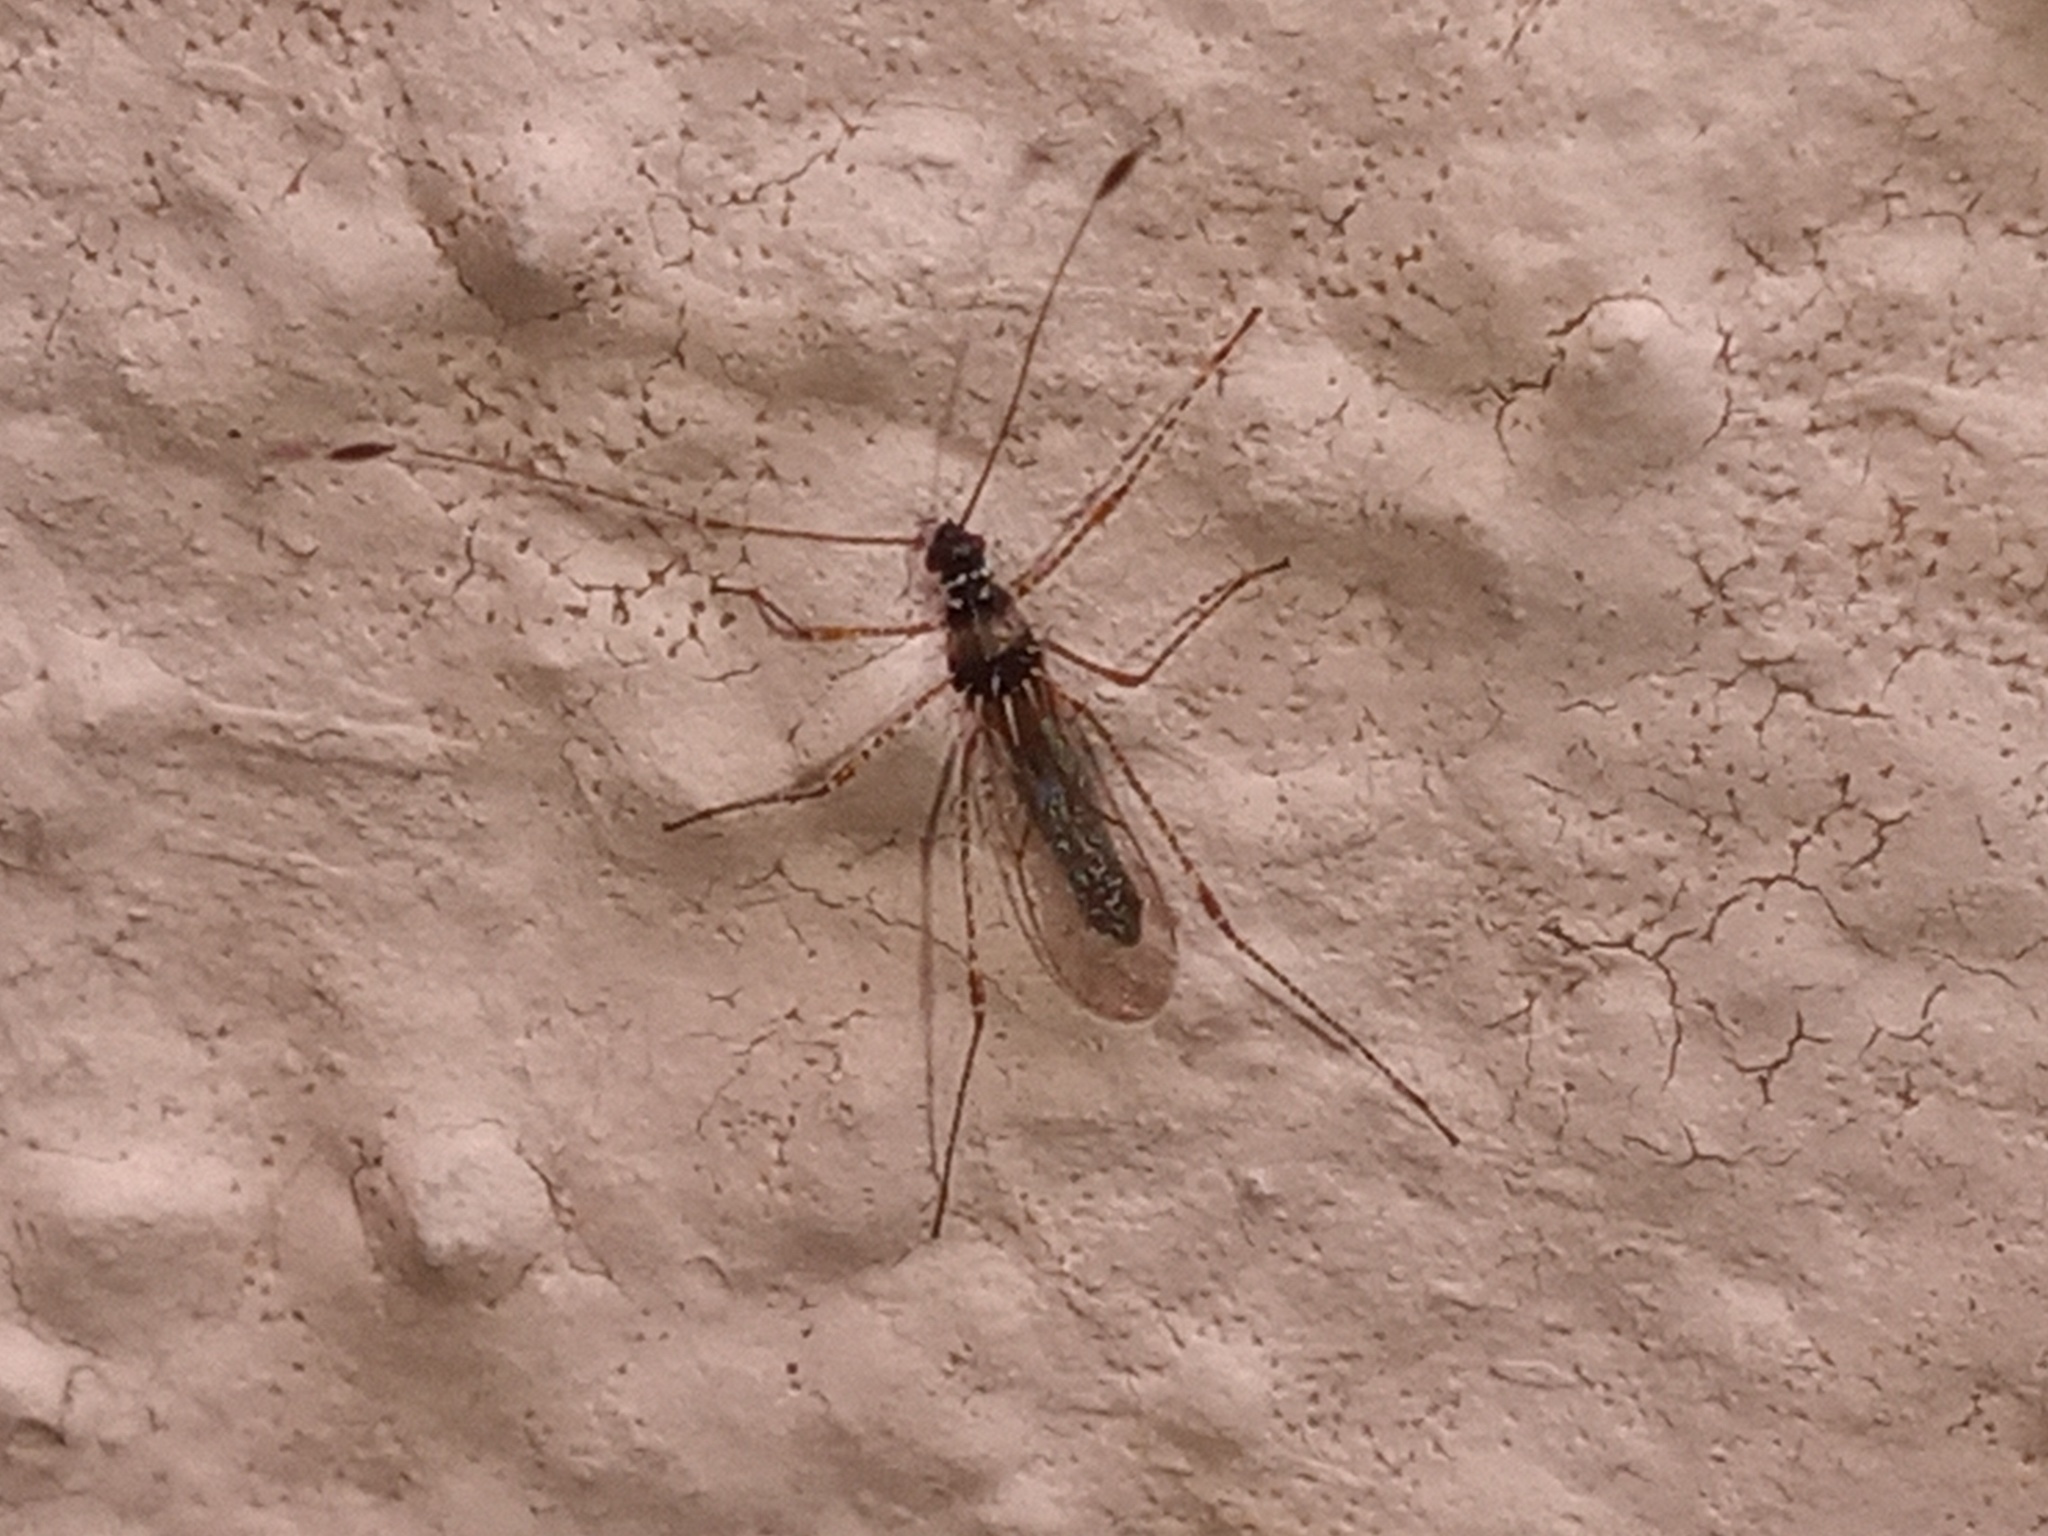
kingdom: Animalia
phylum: Arthropoda
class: Insecta
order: Hemiptera
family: Berytidae
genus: Pronotacantha
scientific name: Pronotacantha annulata
